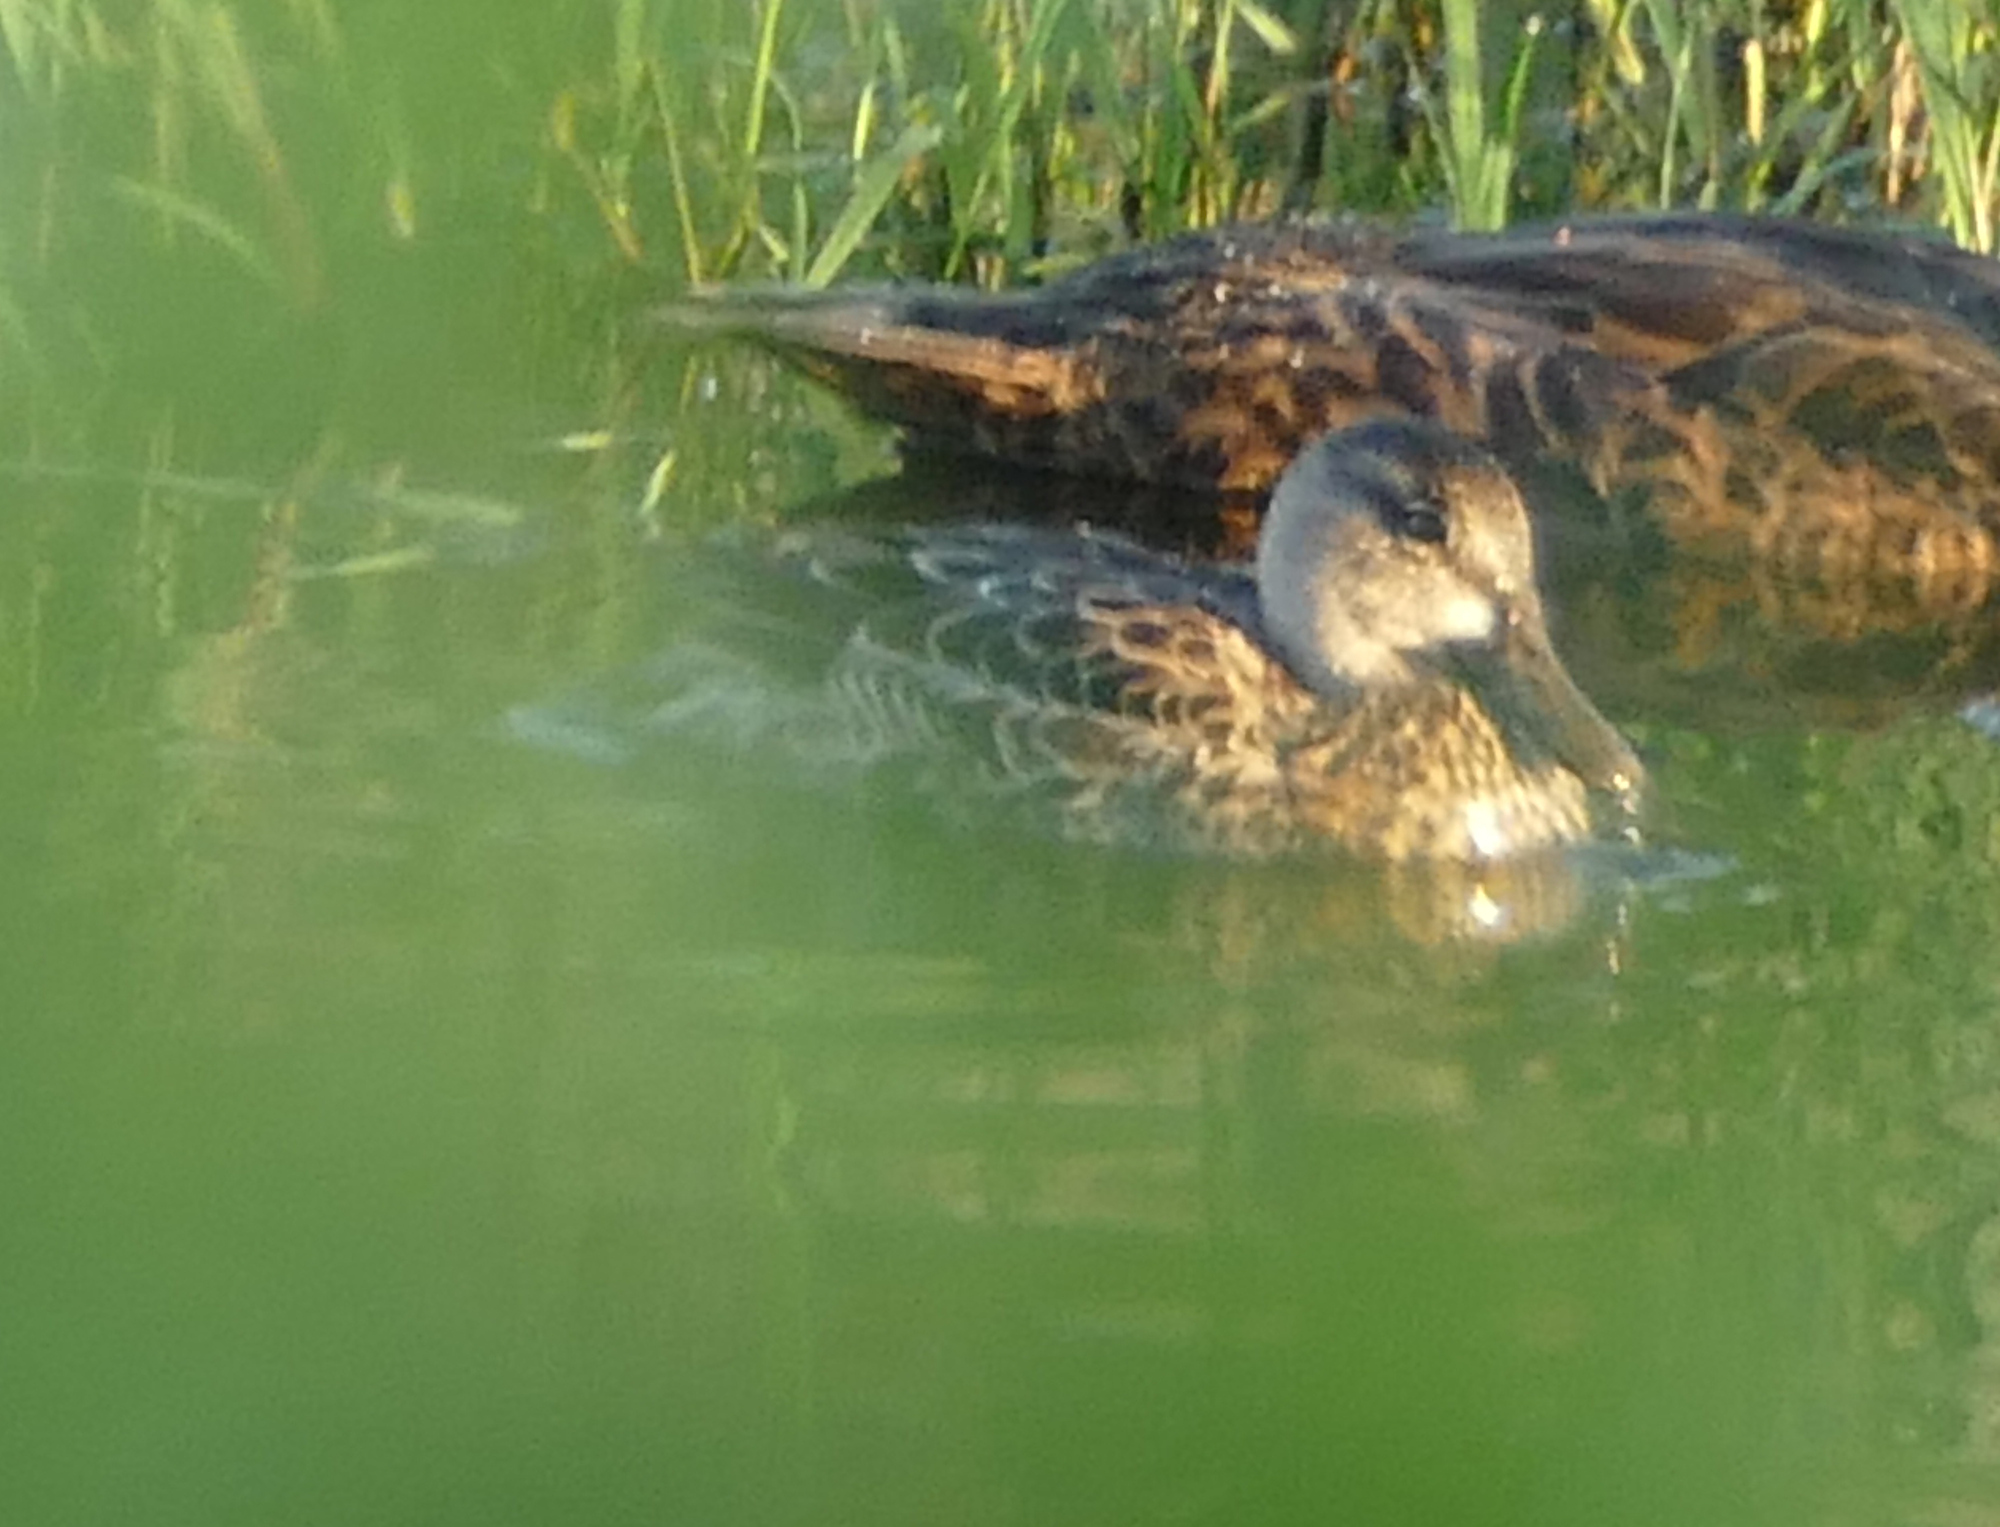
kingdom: Animalia
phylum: Chordata
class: Aves
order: Anseriformes
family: Anatidae
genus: Spatula
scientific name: Spatula discors
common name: Blue-winged teal
